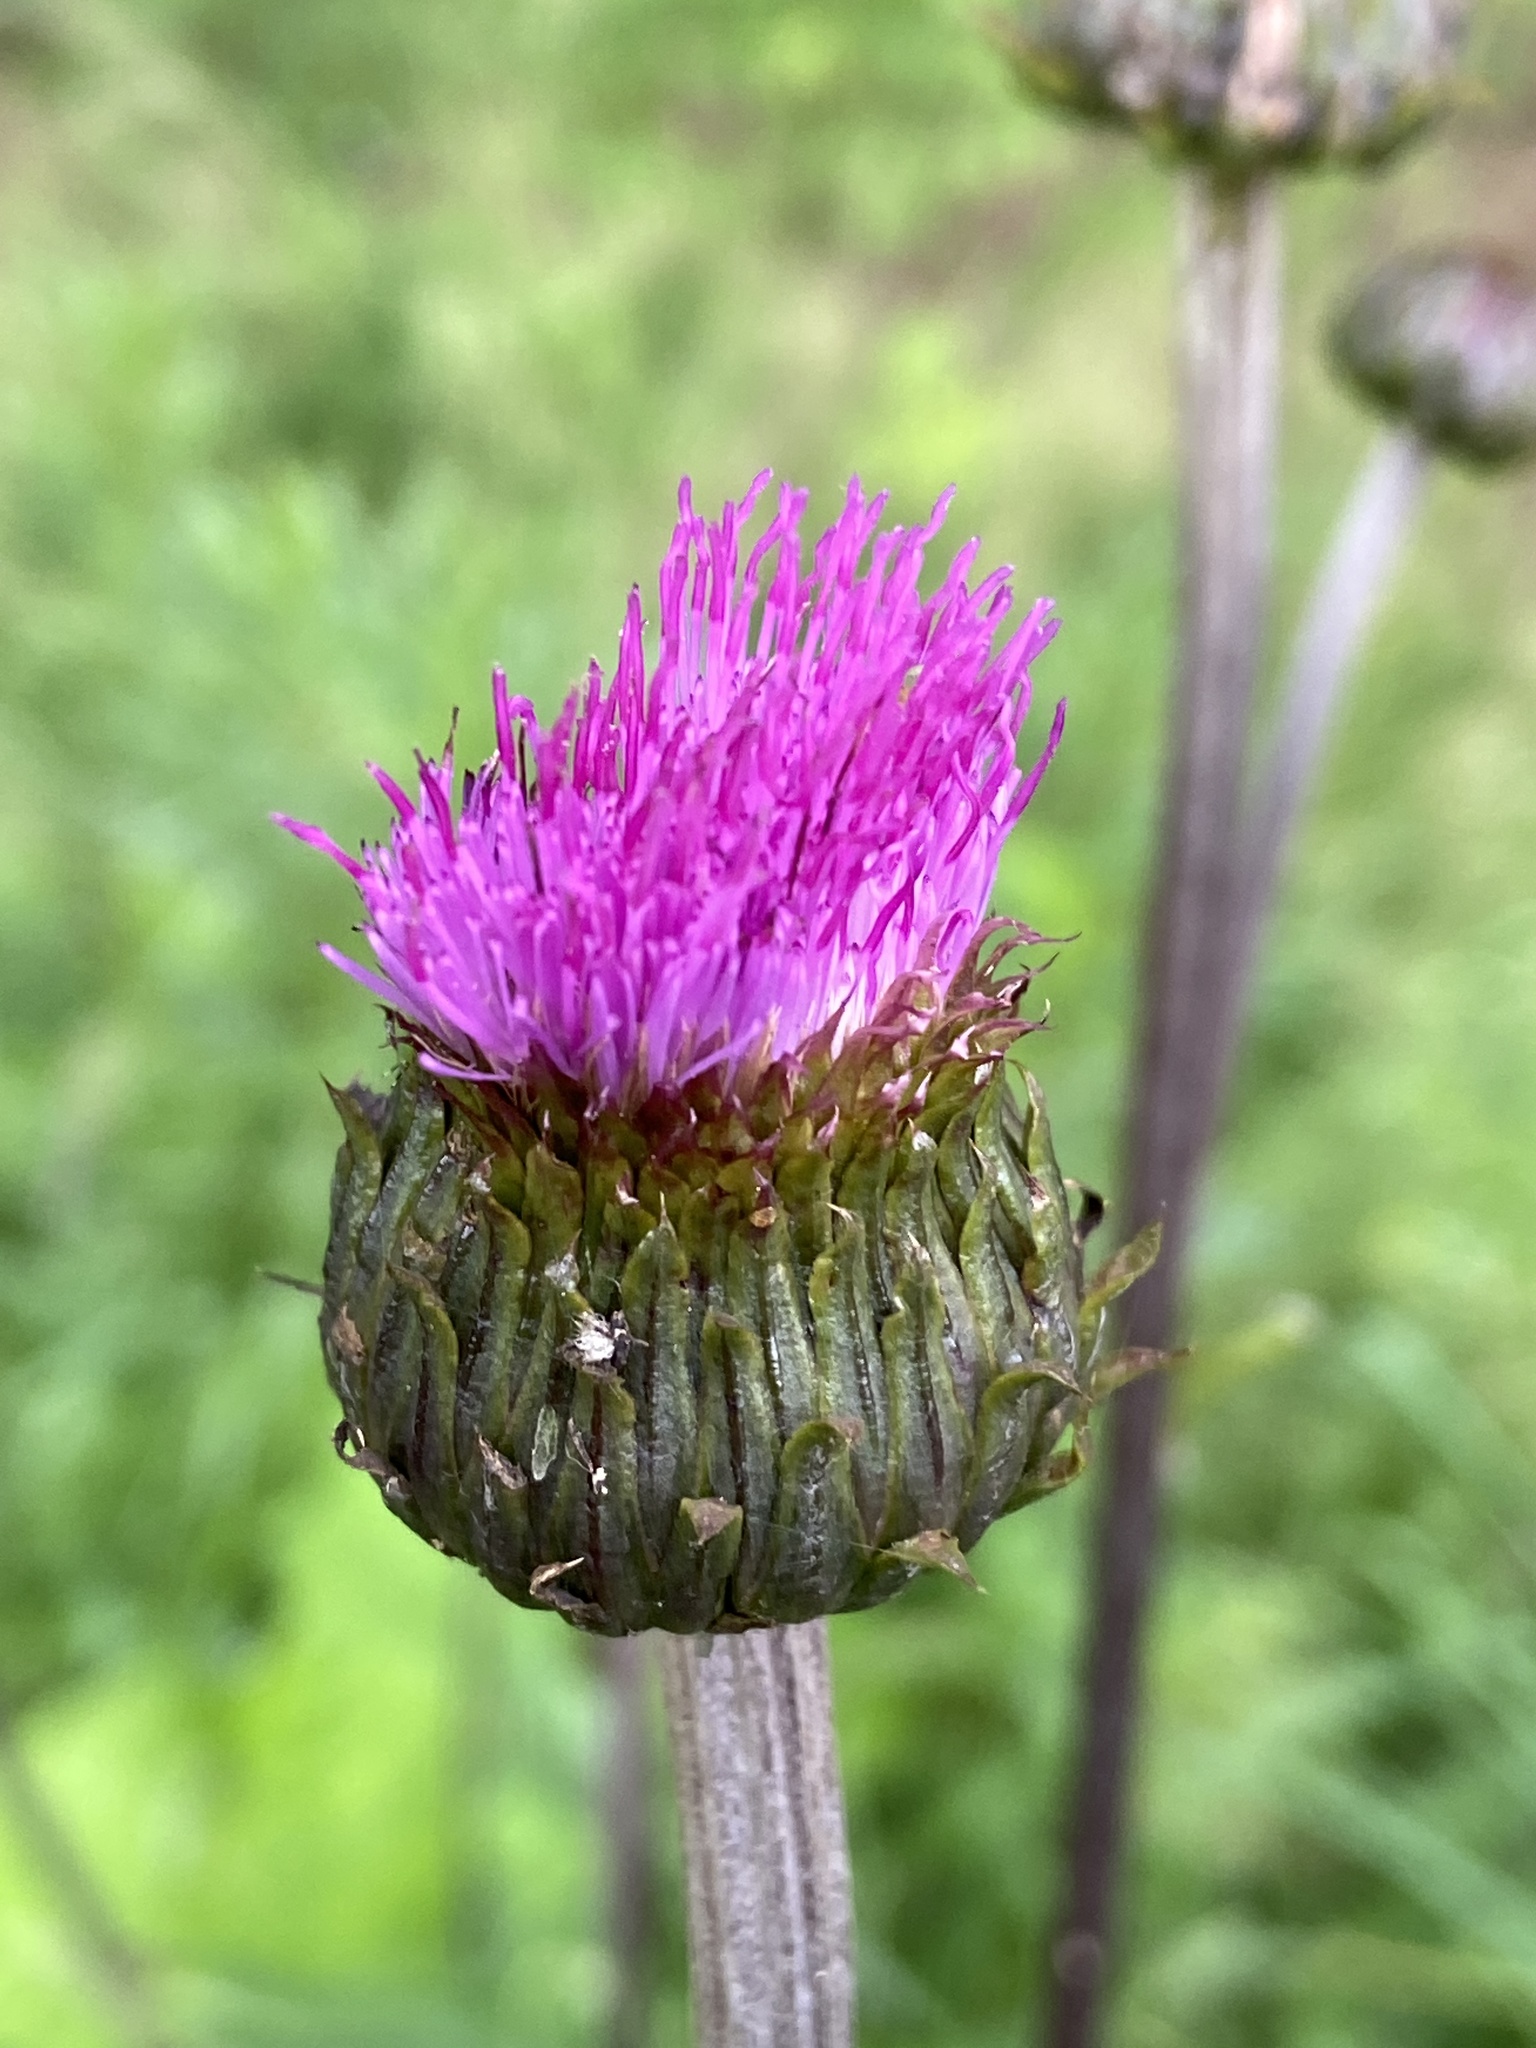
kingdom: Plantae
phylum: Tracheophyta
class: Magnoliopsida
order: Asterales
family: Asteraceae
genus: Cirsium
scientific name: Cirsium heterophyllum
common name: Melancholy thistle
